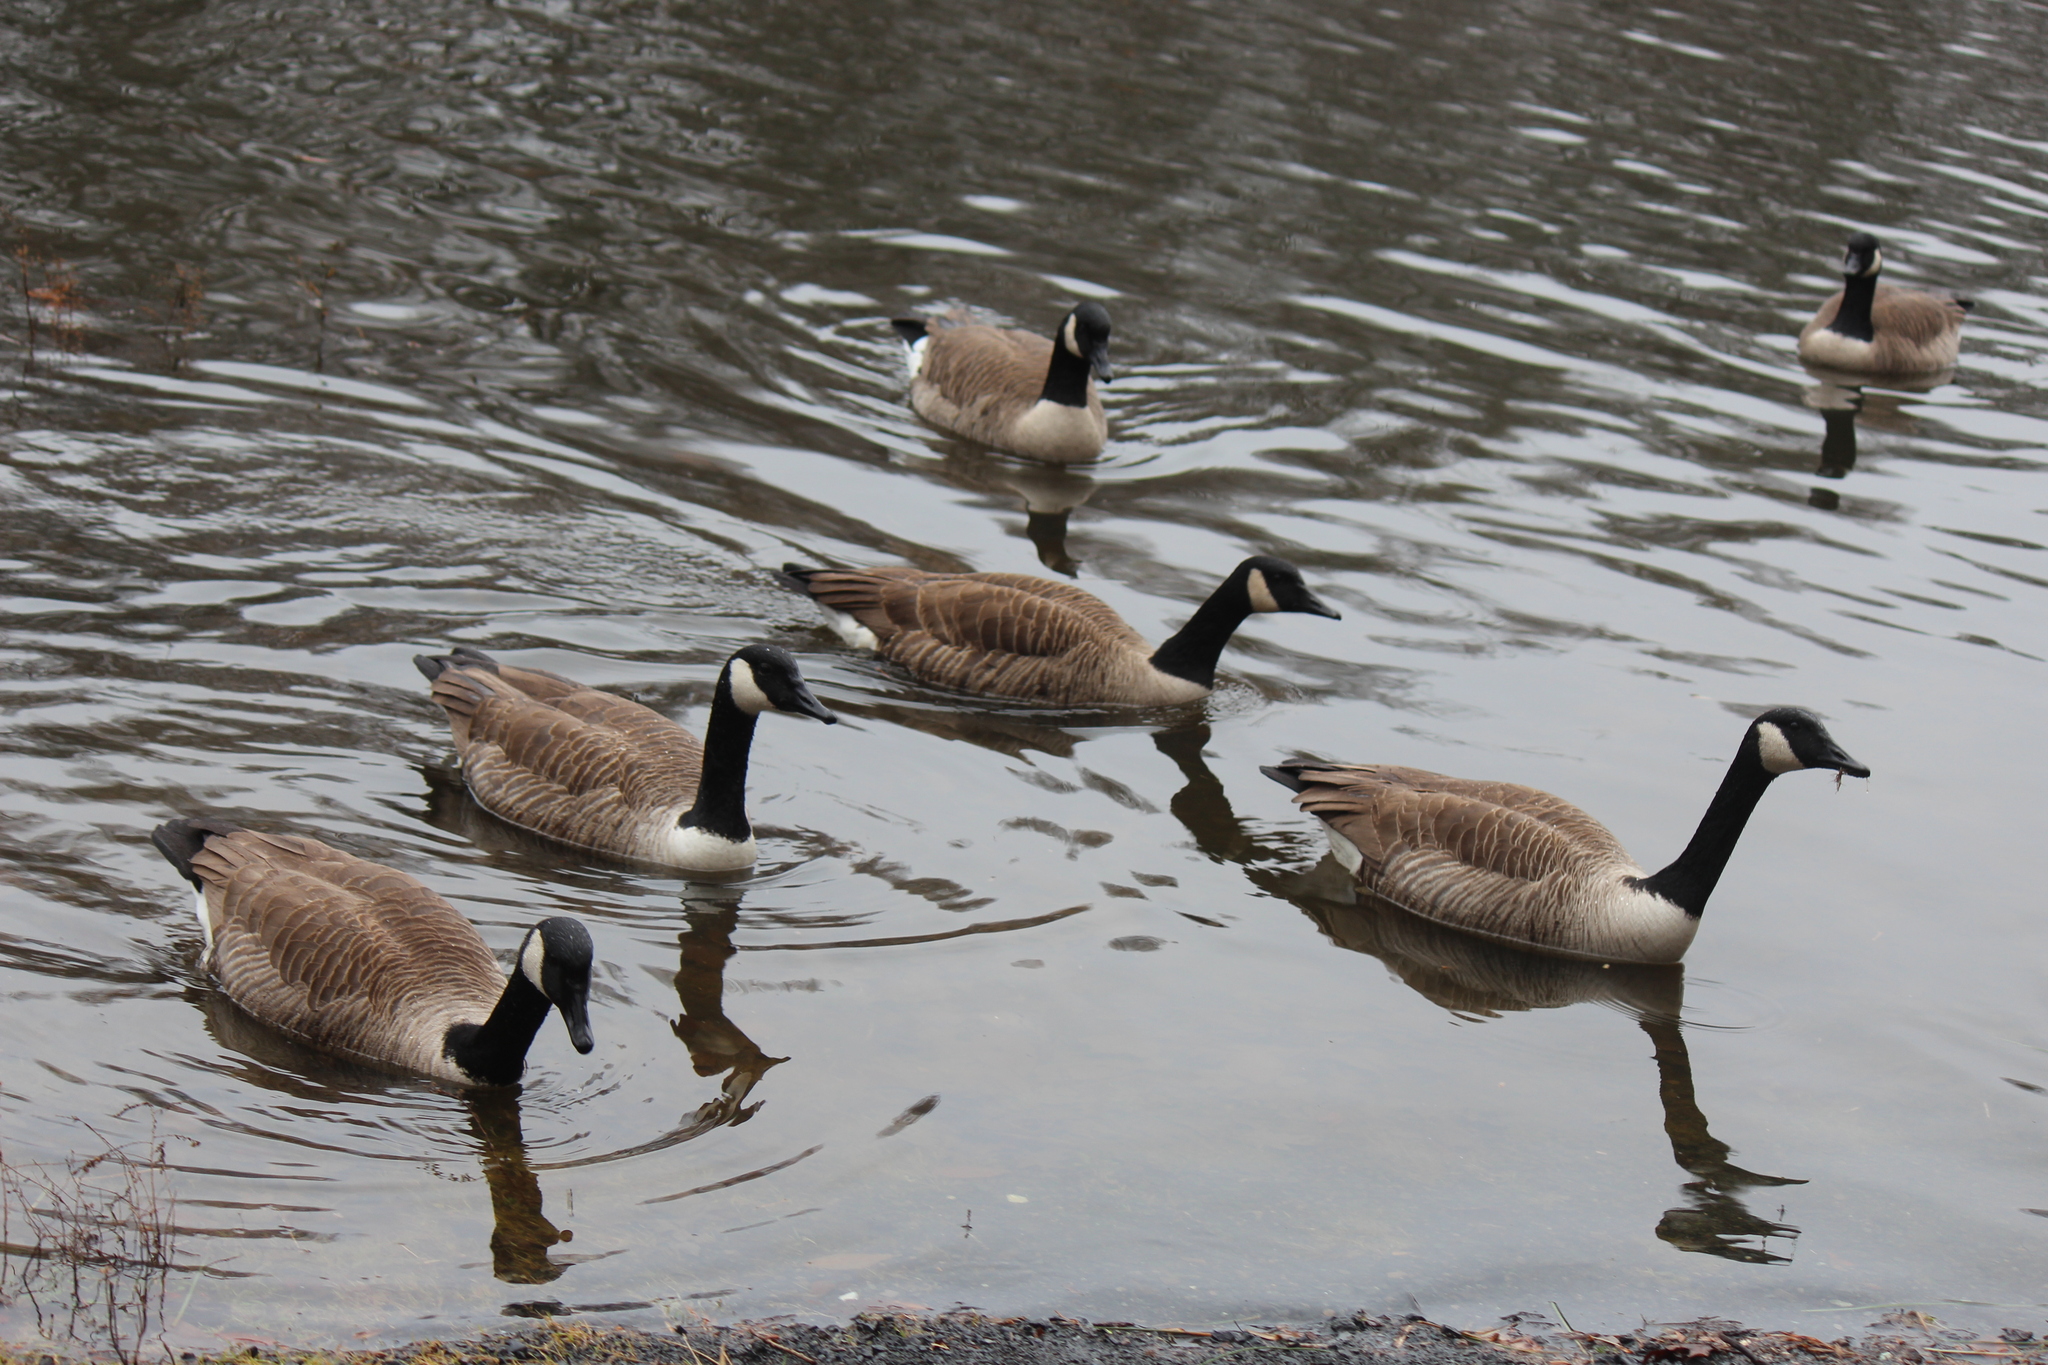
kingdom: Animalia
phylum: Chordata
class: Aves
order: Anseriformes
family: Anatidae
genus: Branta
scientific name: Branta canadensis
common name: Canada goose
